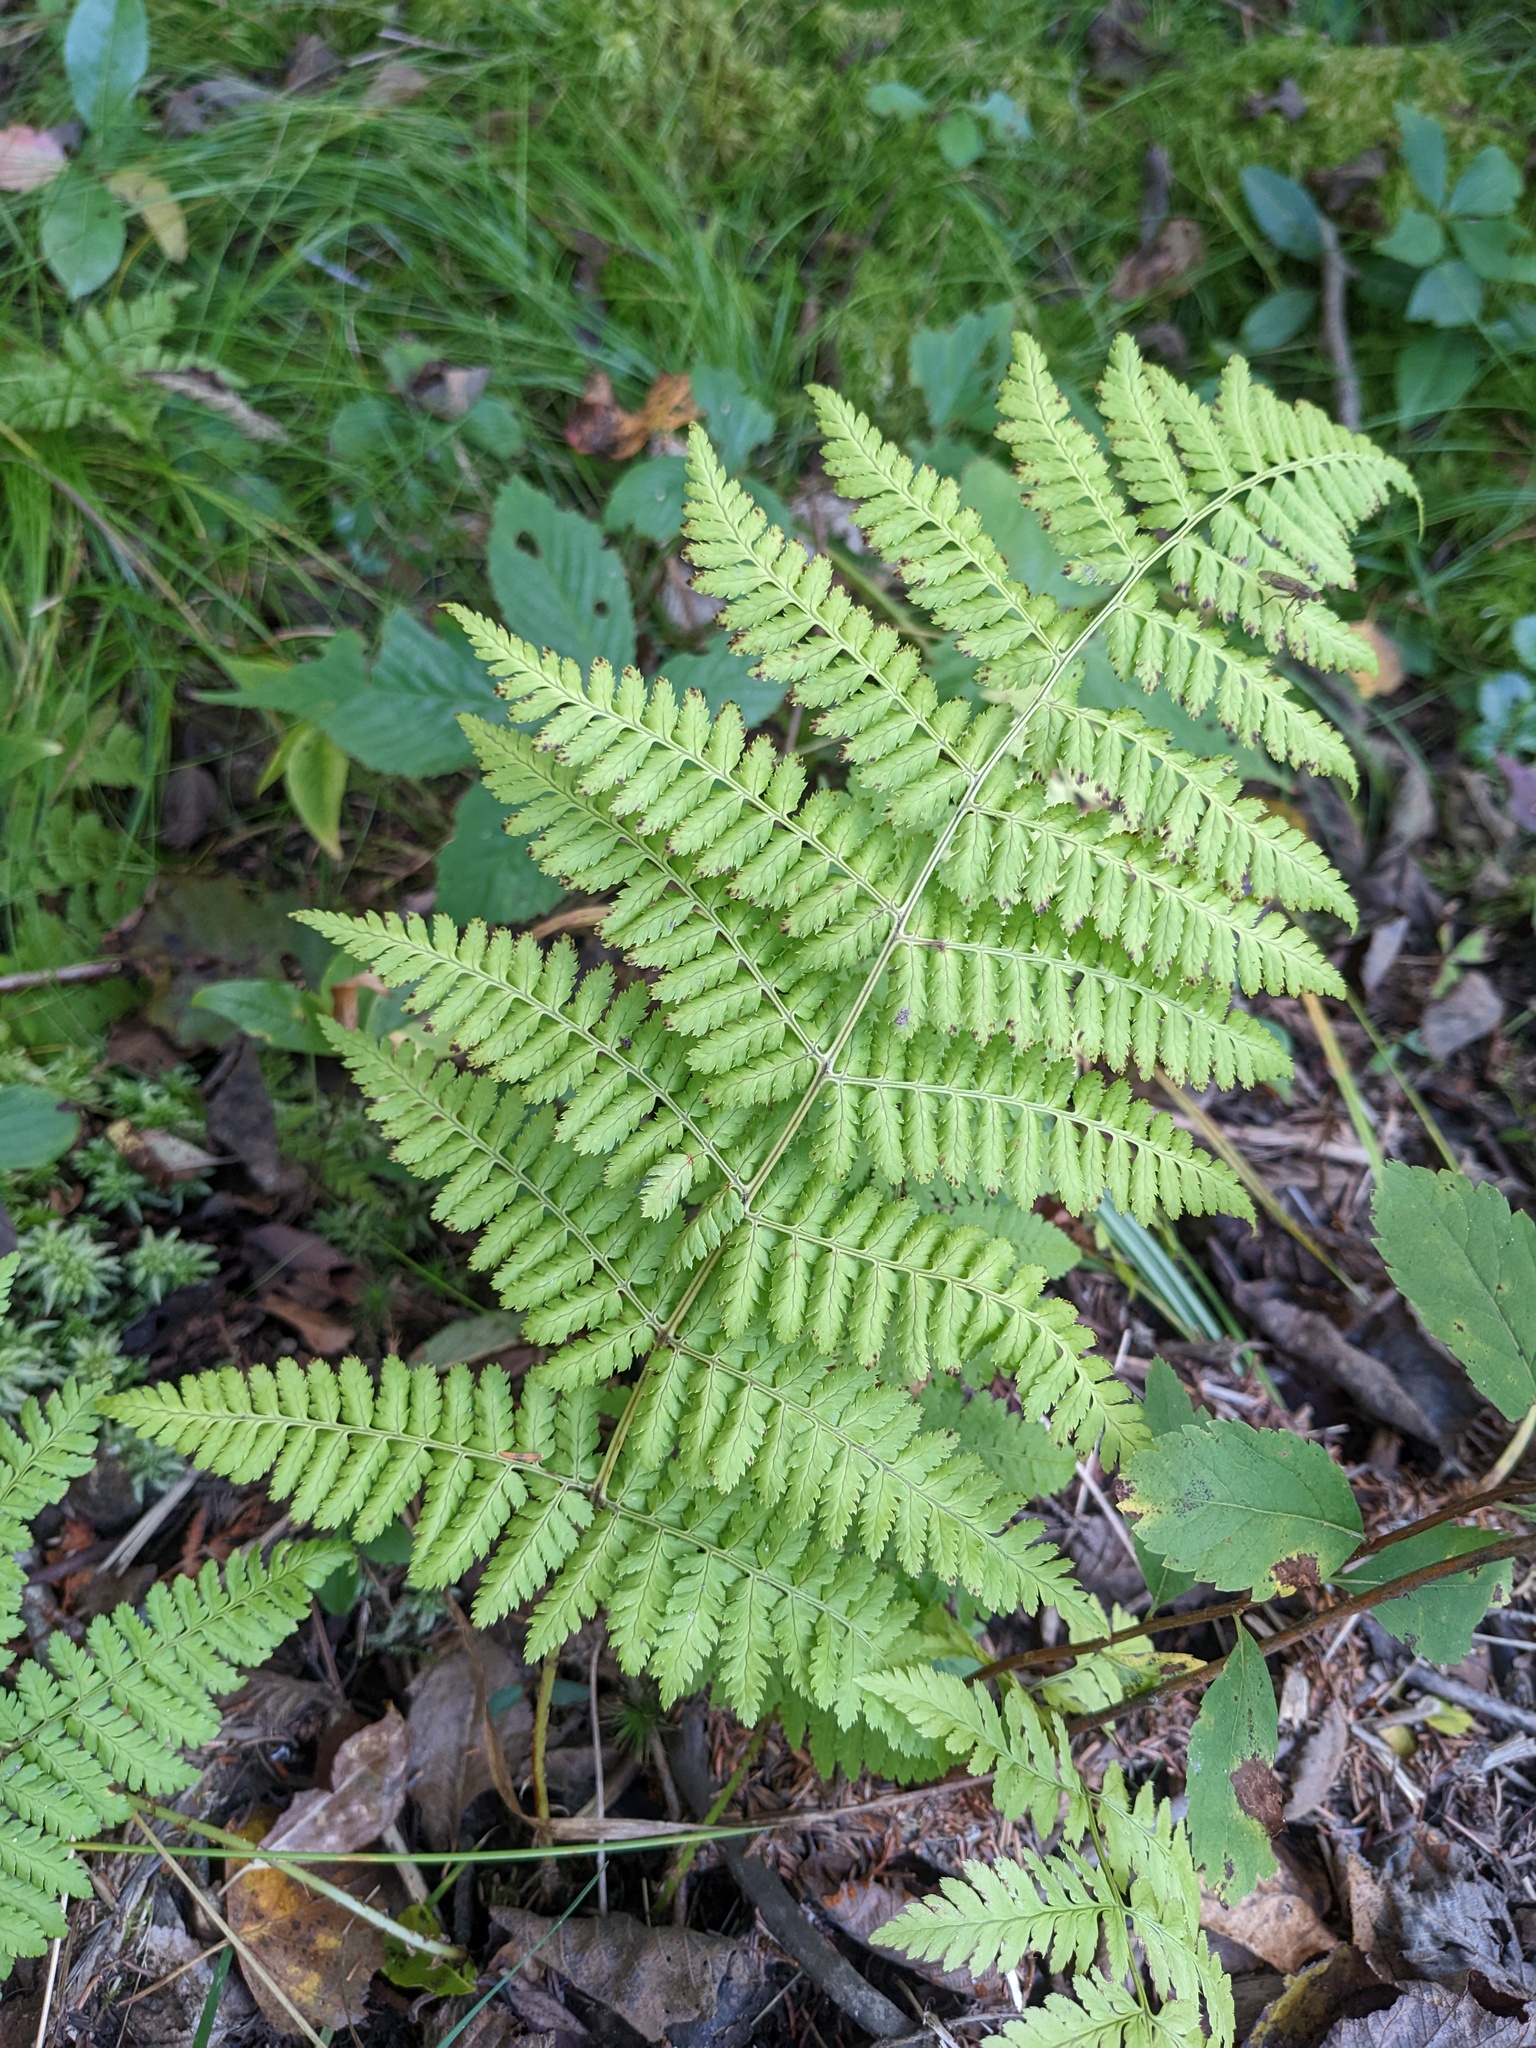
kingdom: Plantae
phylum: Tracheophyta
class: Polypodiopsida
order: Polypodiales
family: Dryopteridaceae
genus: Dryopteris
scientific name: Dryopteris intermedia
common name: Evergreen wood fern
